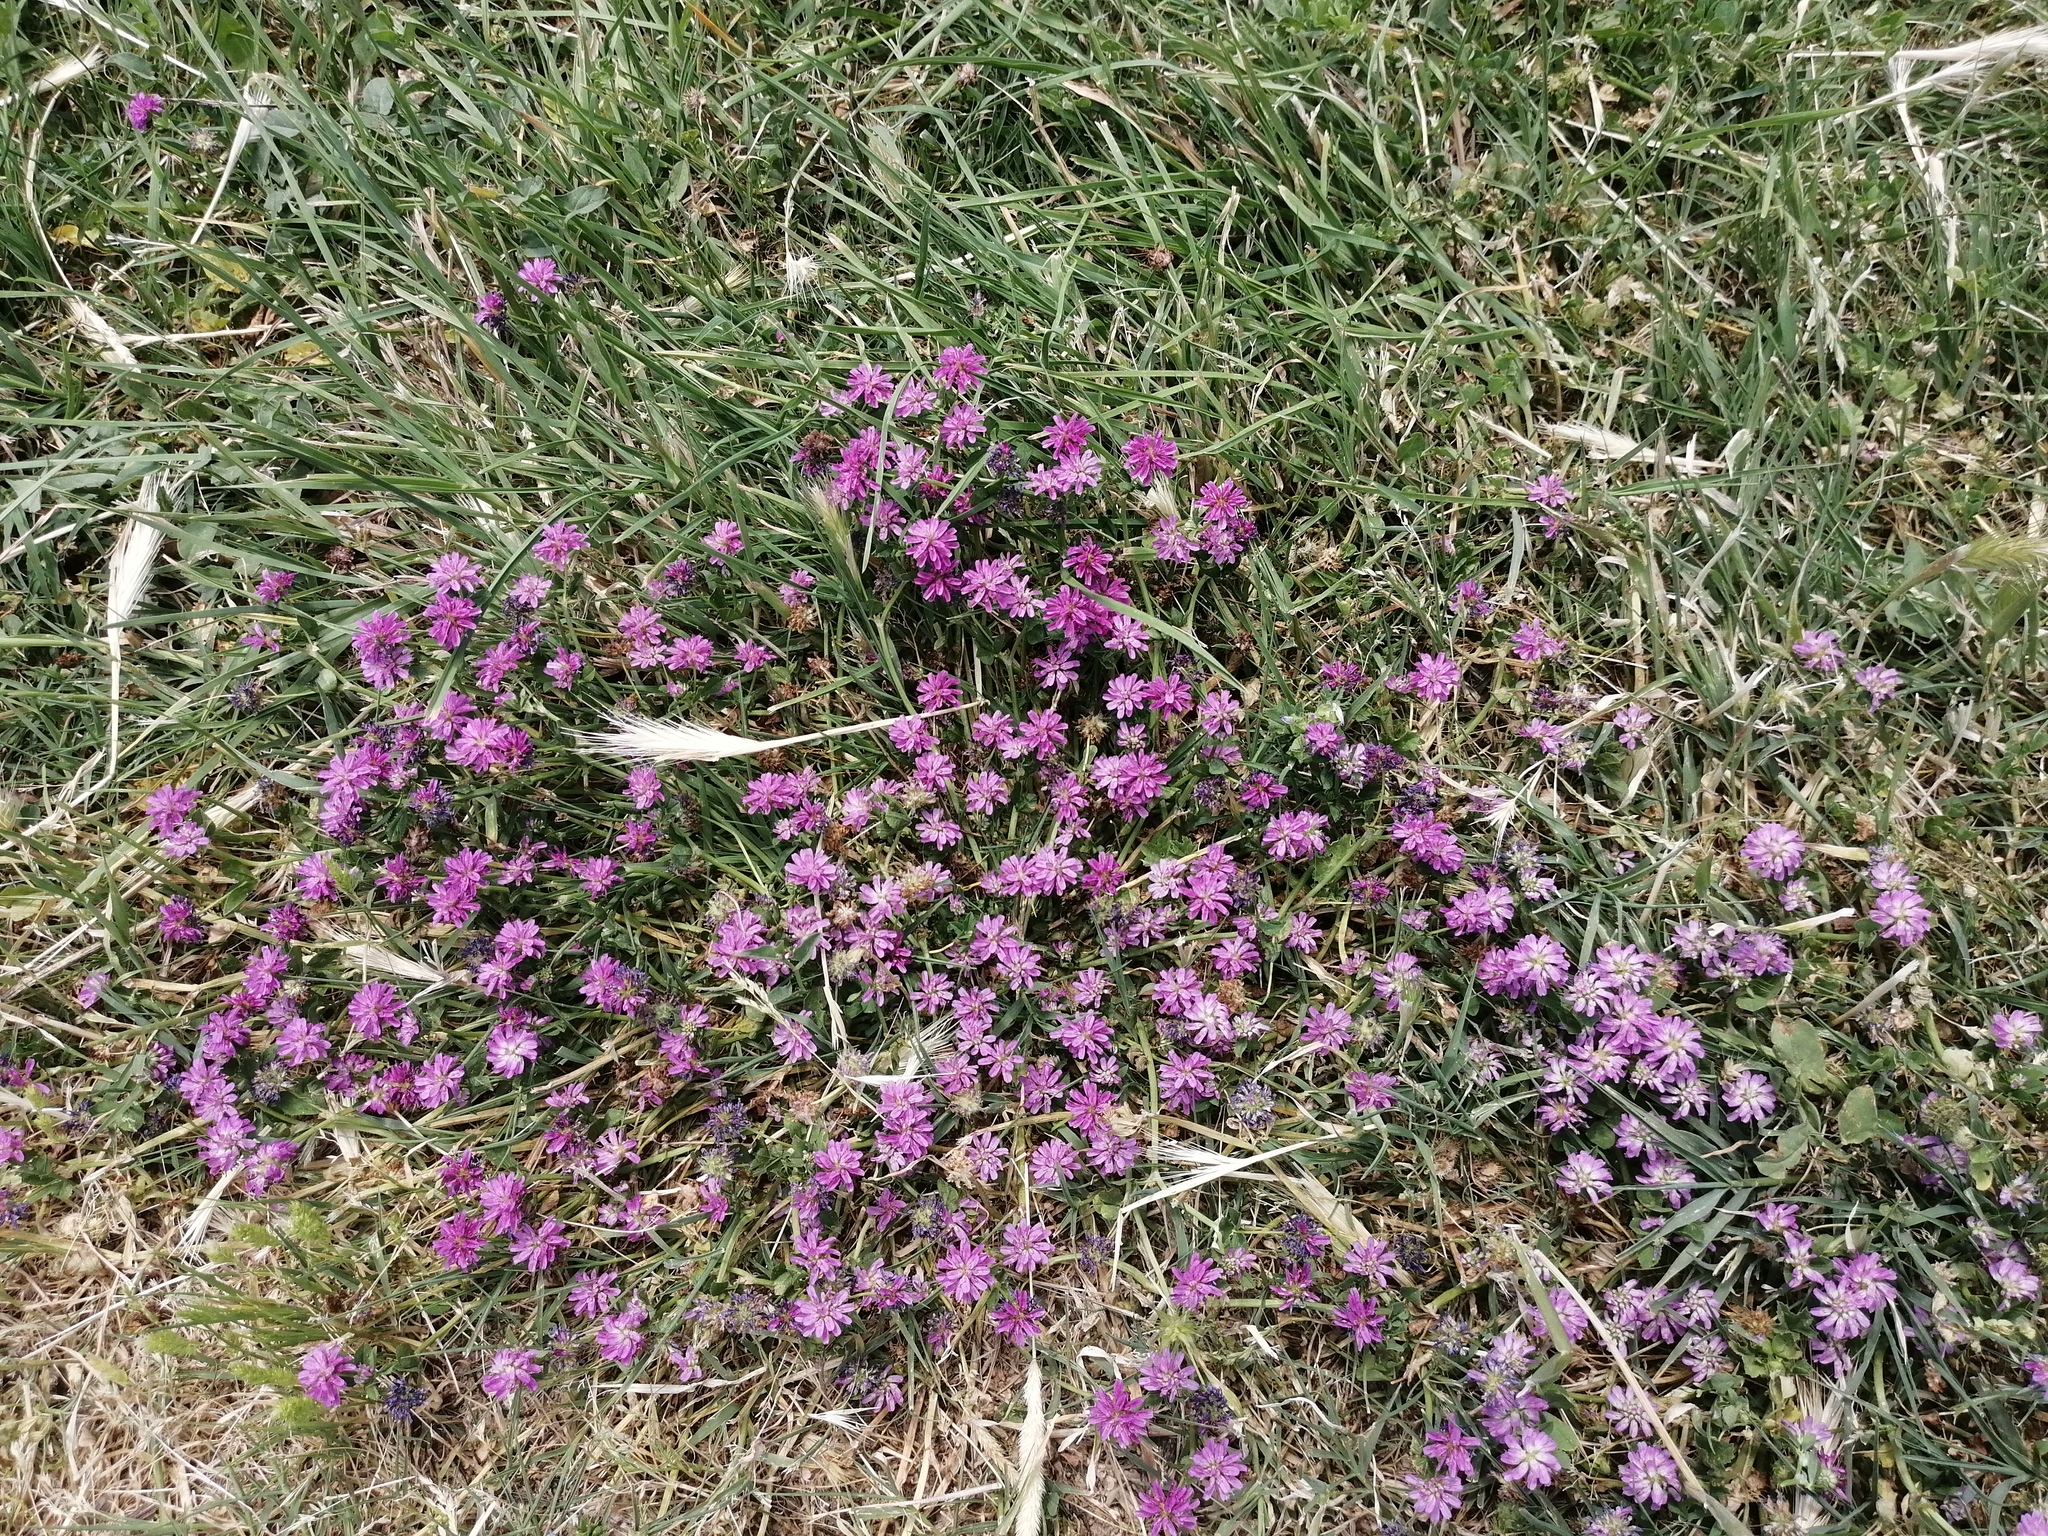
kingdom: Plantae
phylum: Tracheophyta
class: Magnoliopsida
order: Fabales
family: Fabaceae
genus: Trifolium
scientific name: Trifolium resupinatum
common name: Reversed clover
